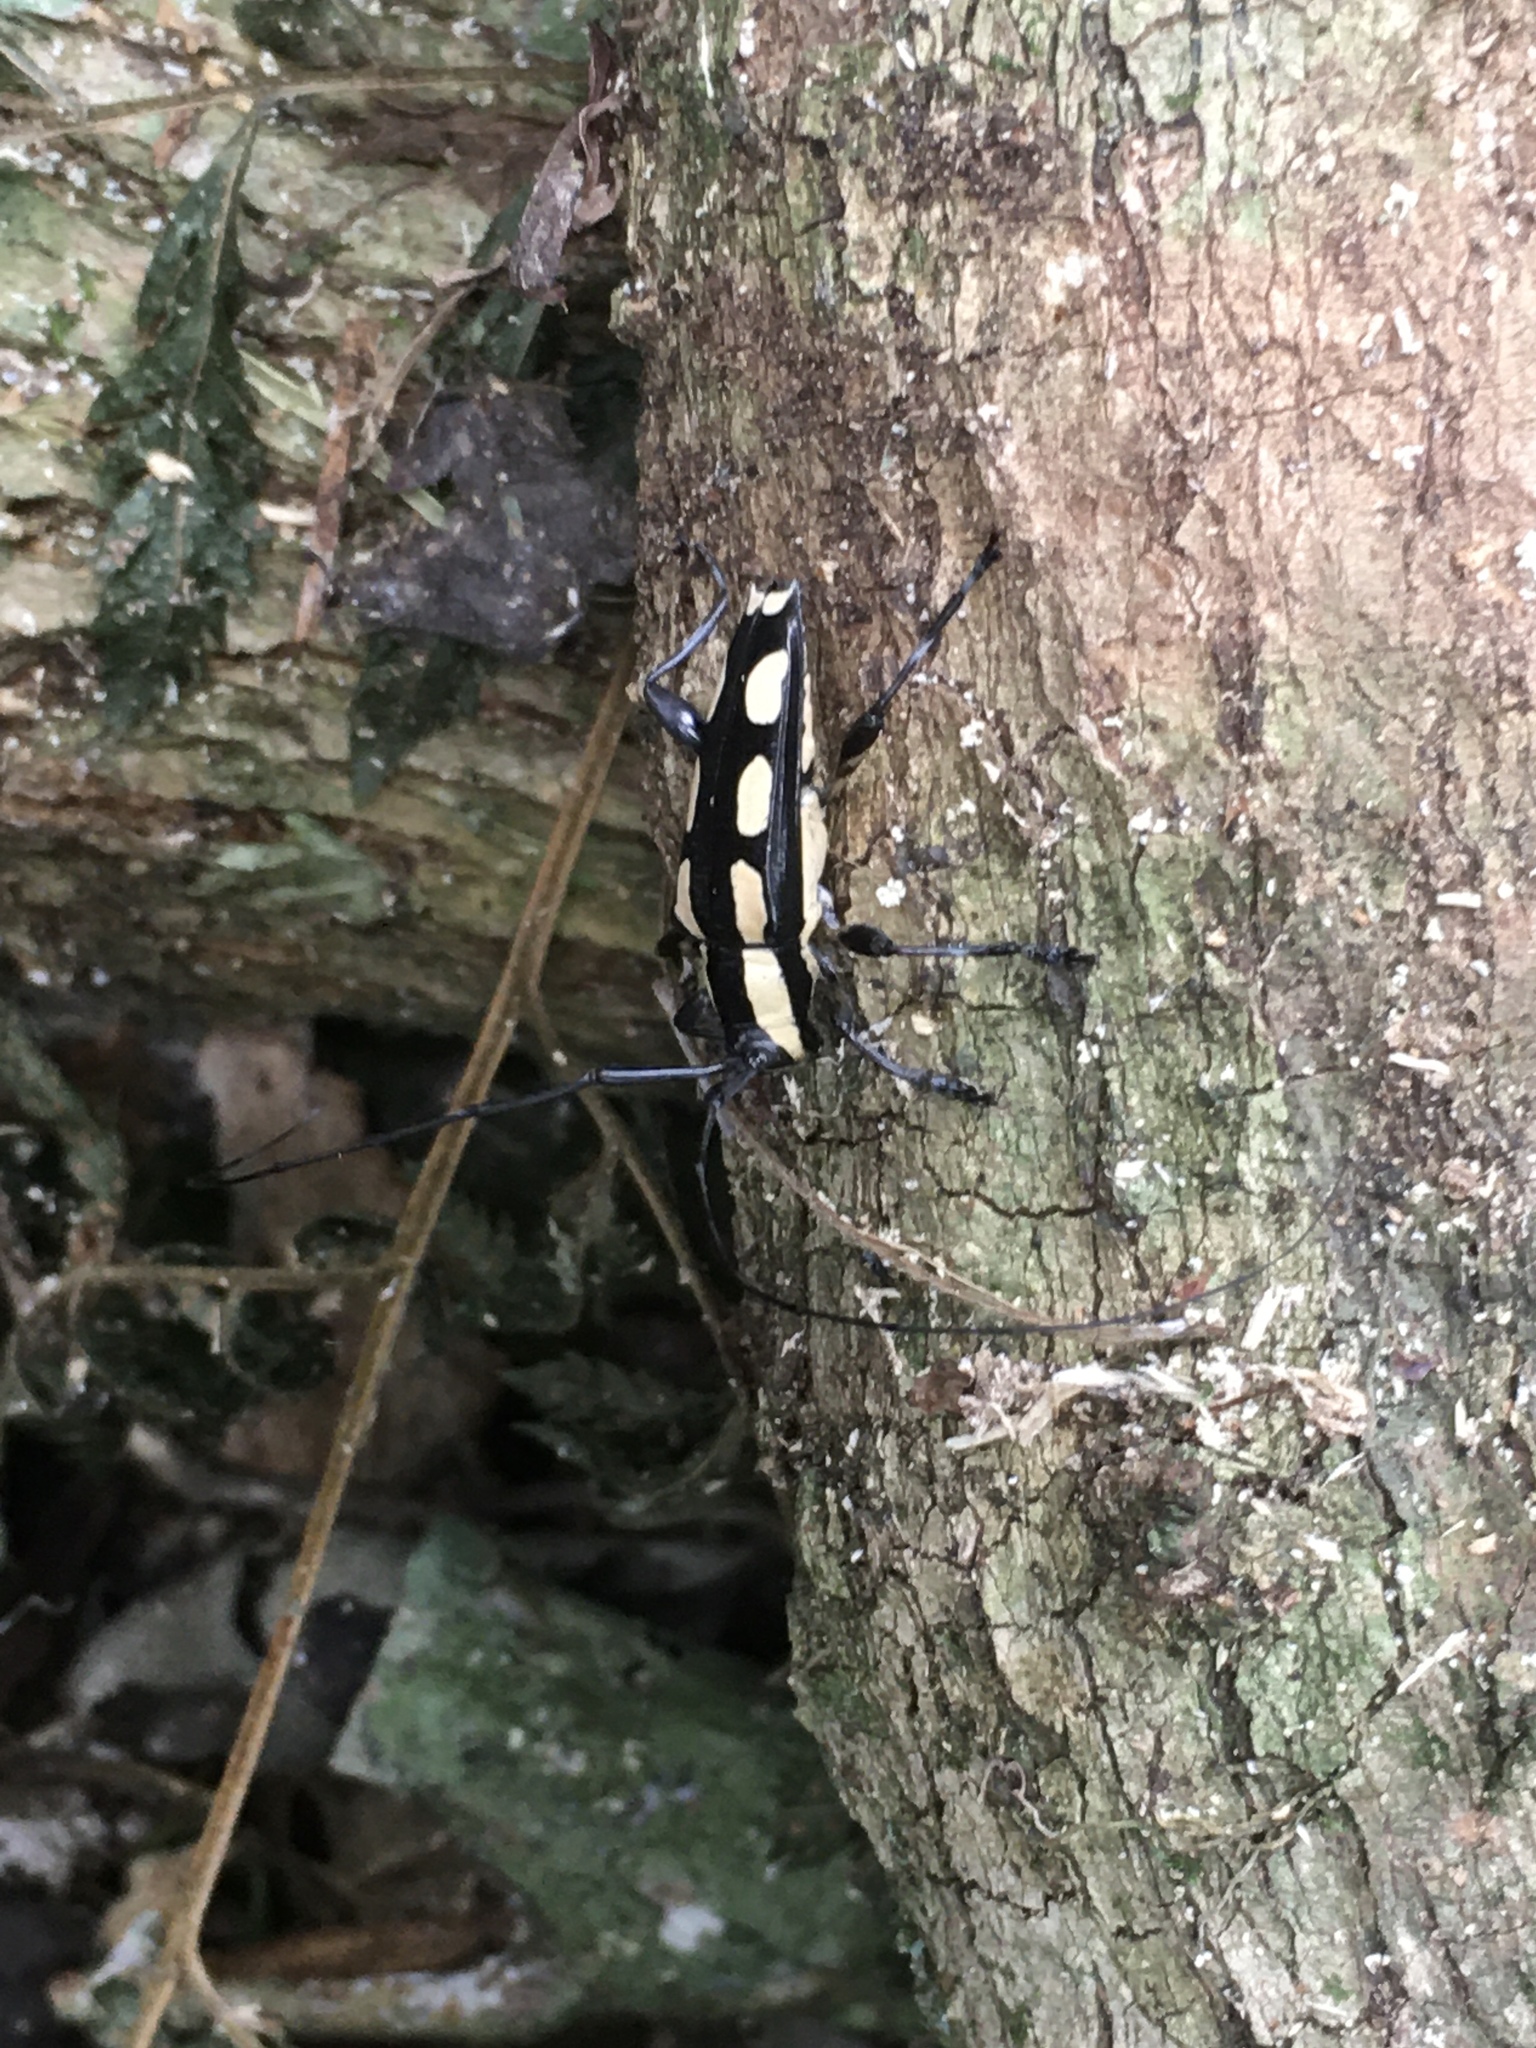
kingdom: Animalia
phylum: Arthropoda
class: Insecta
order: Coleoptera
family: Cerambycidae
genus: Colobothea
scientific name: Colobothea cassandra
